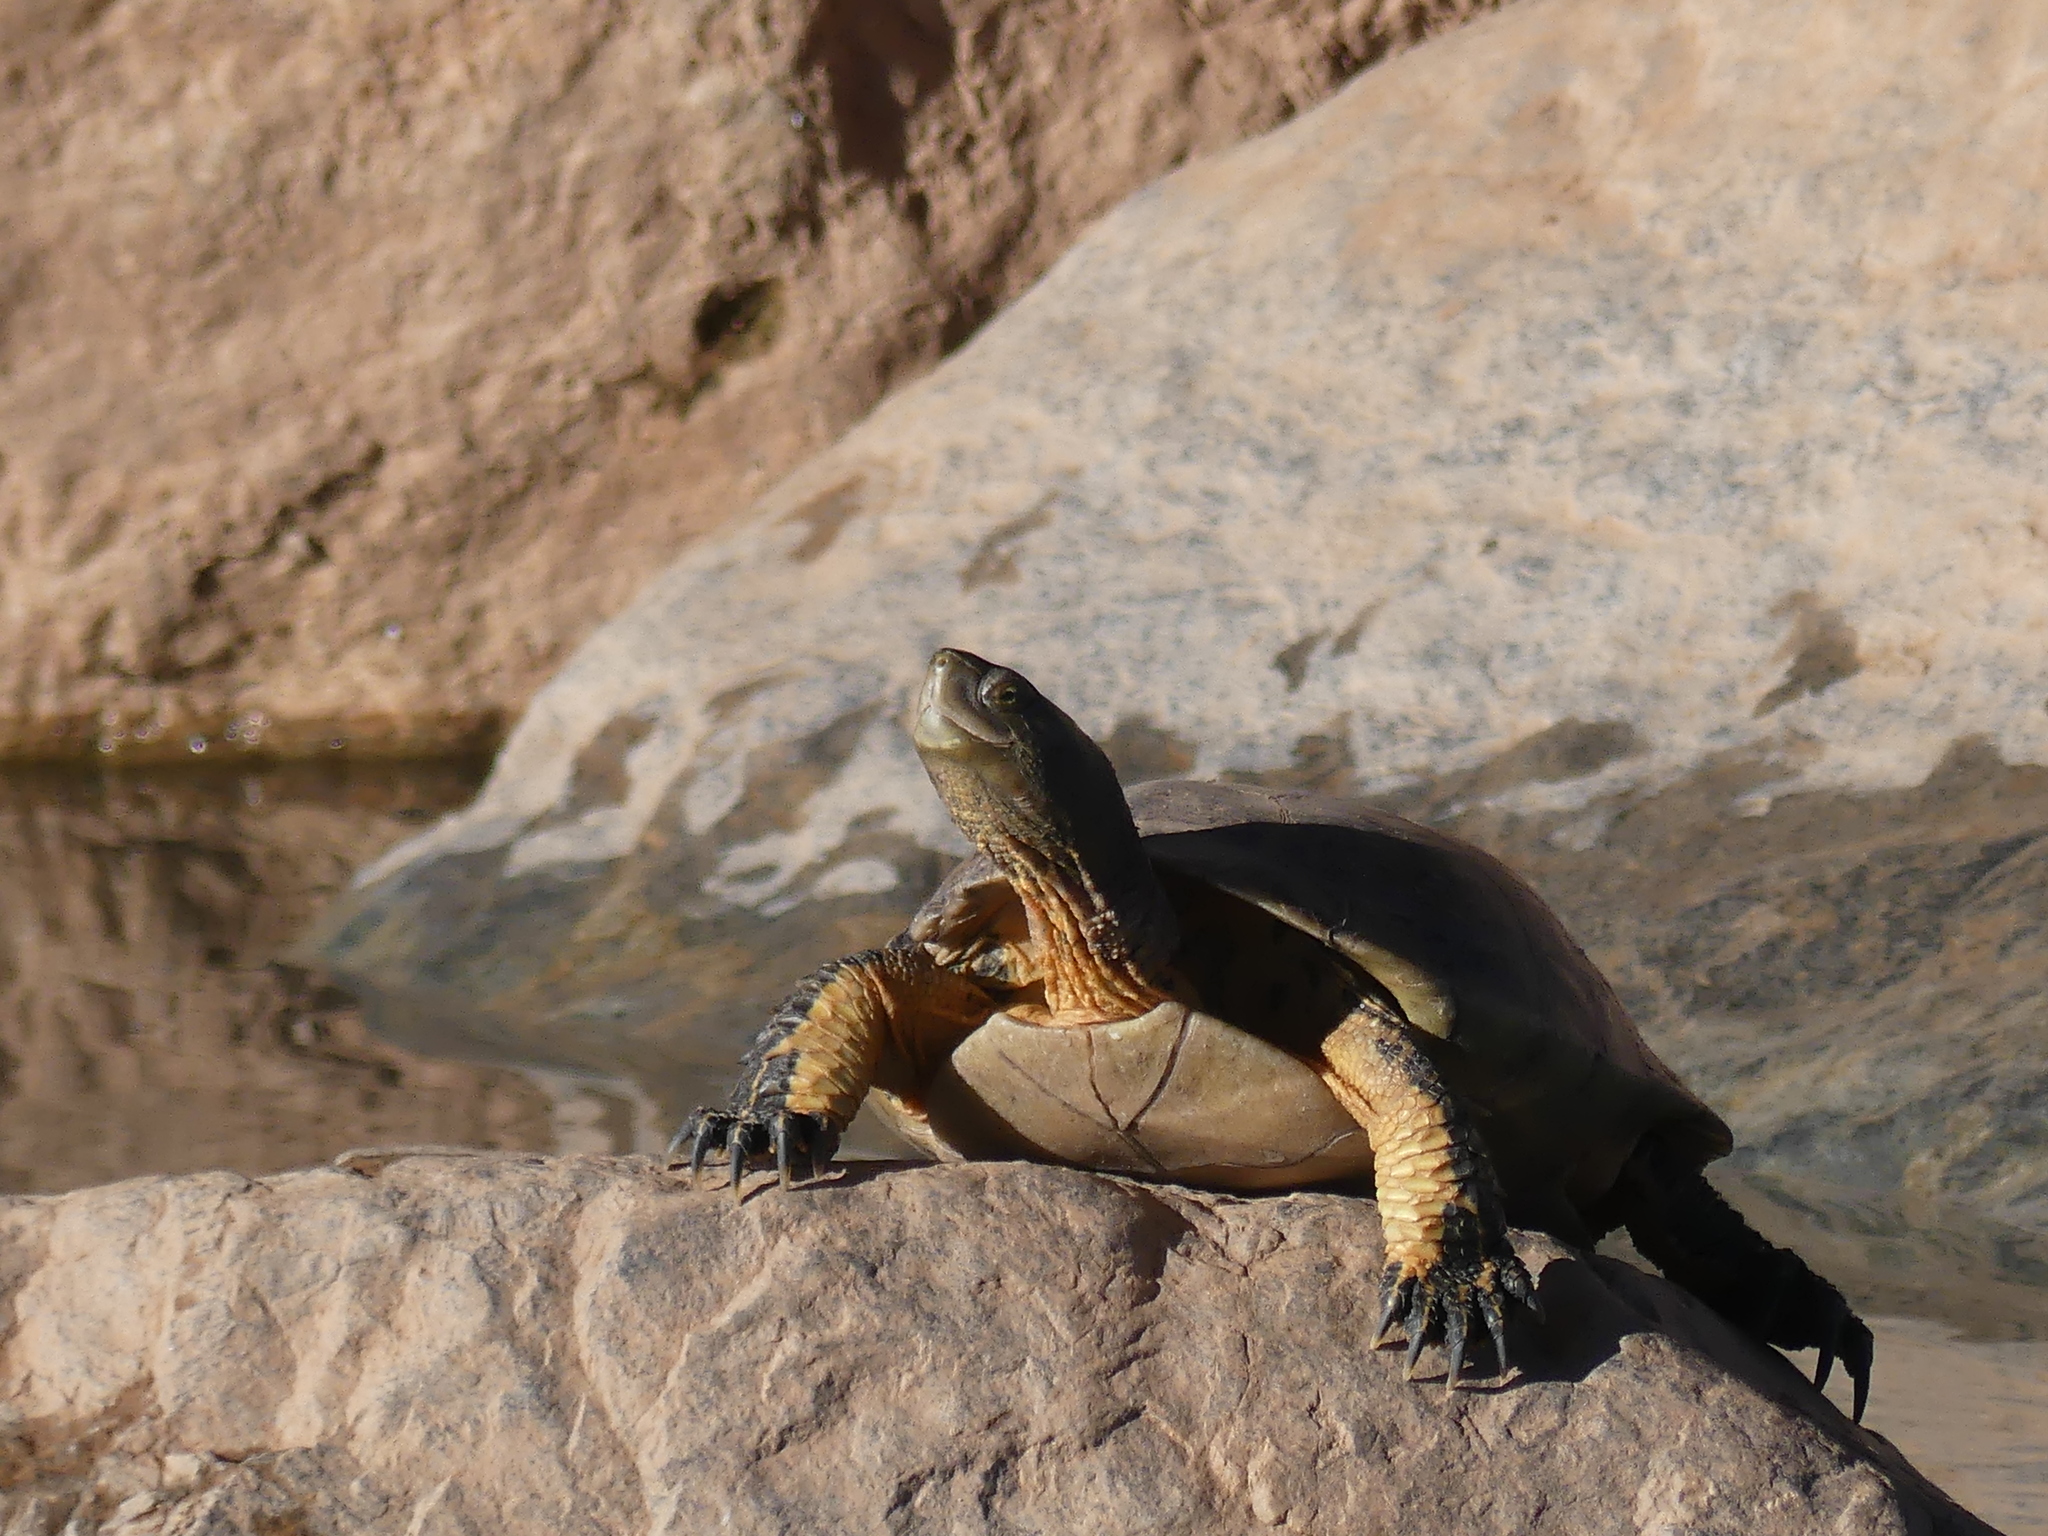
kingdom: Animalia
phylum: Chordata
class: Testudines
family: Geoemydidae
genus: Mauremys
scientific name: Mauremys leprosa
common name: Mediterranean pond turtle
